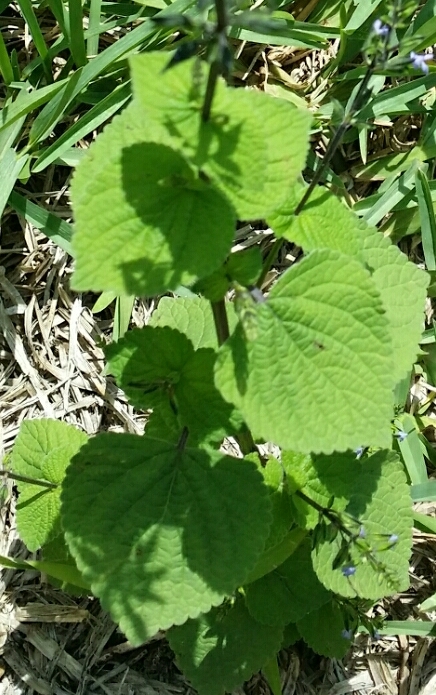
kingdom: Plantae
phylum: Tracheophyta
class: Magnoliopsida
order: Lamiales
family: Lamiaceae
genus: Salvia
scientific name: Salvia tiliifolia
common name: Lindenleaf sage
